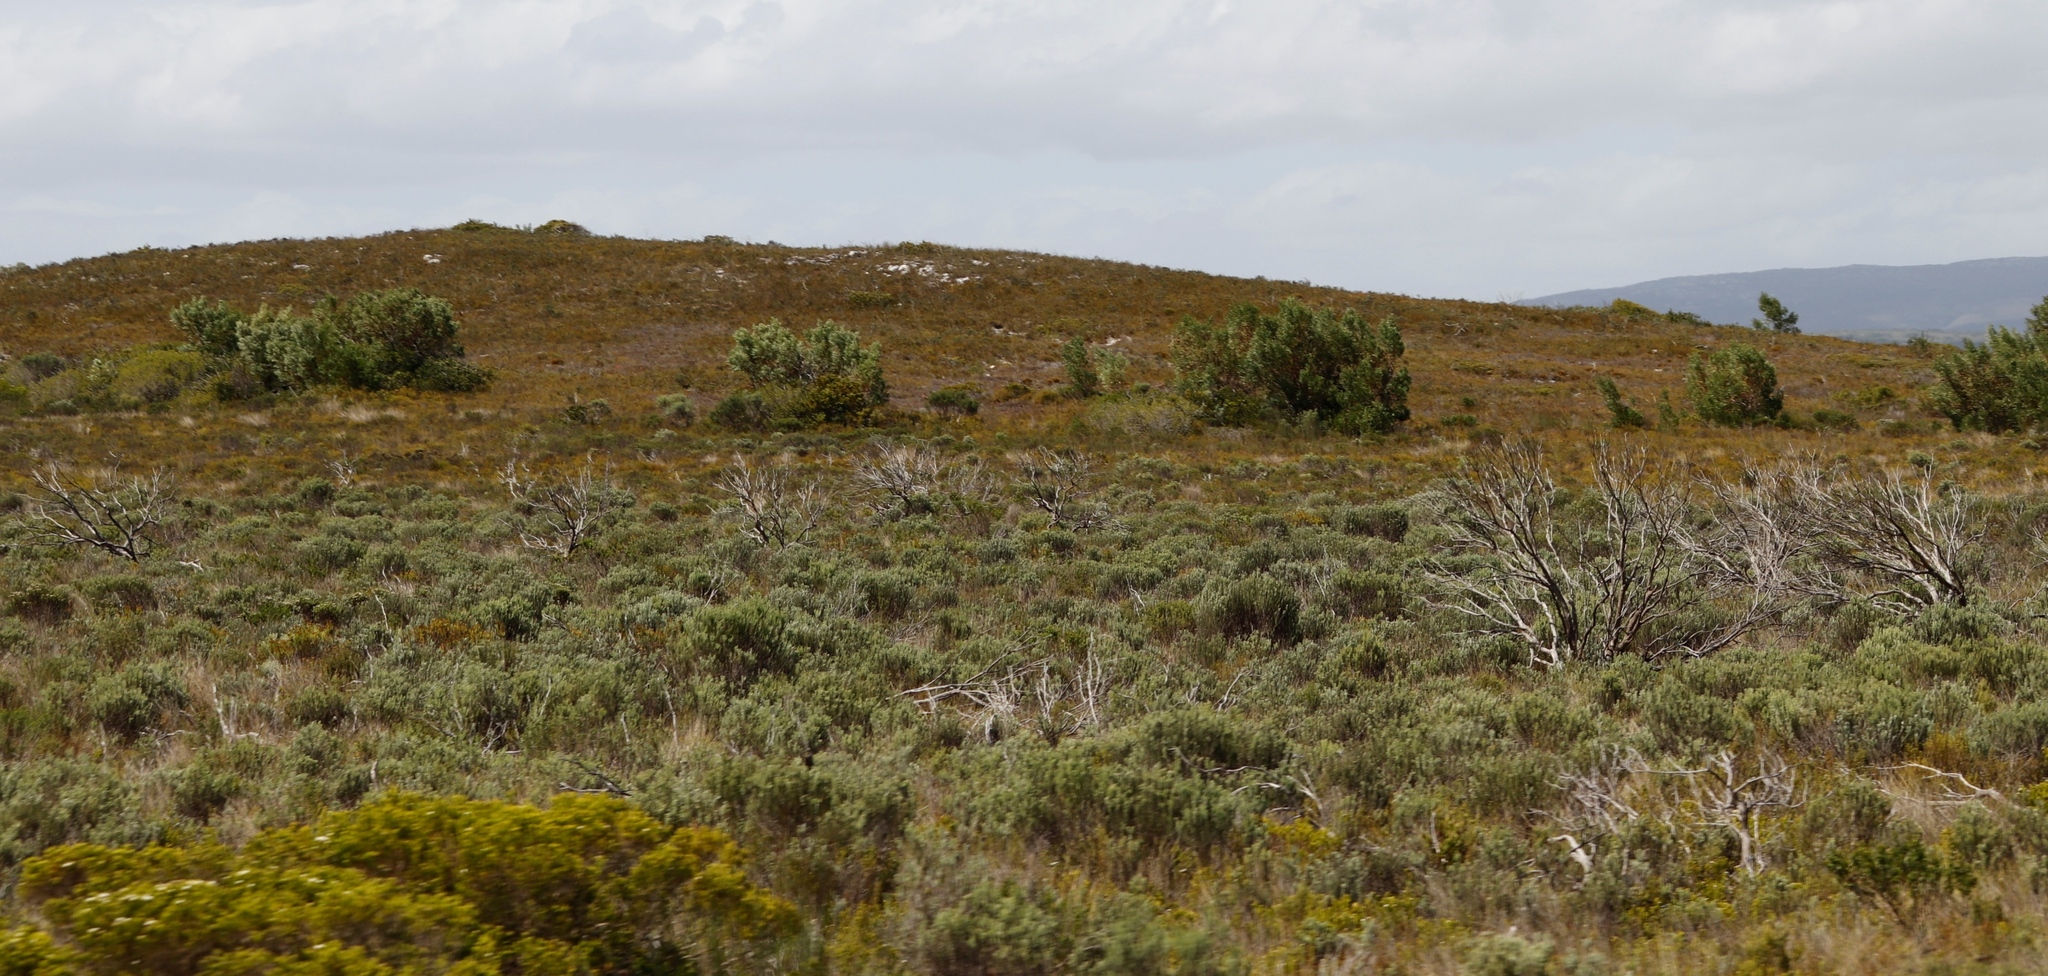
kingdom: Plantae
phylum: Tracheophyta
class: Magnoliopsida
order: Fabales
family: Fabaceae
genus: Acacia
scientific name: Acacia cyclops
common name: Coastal wattle
